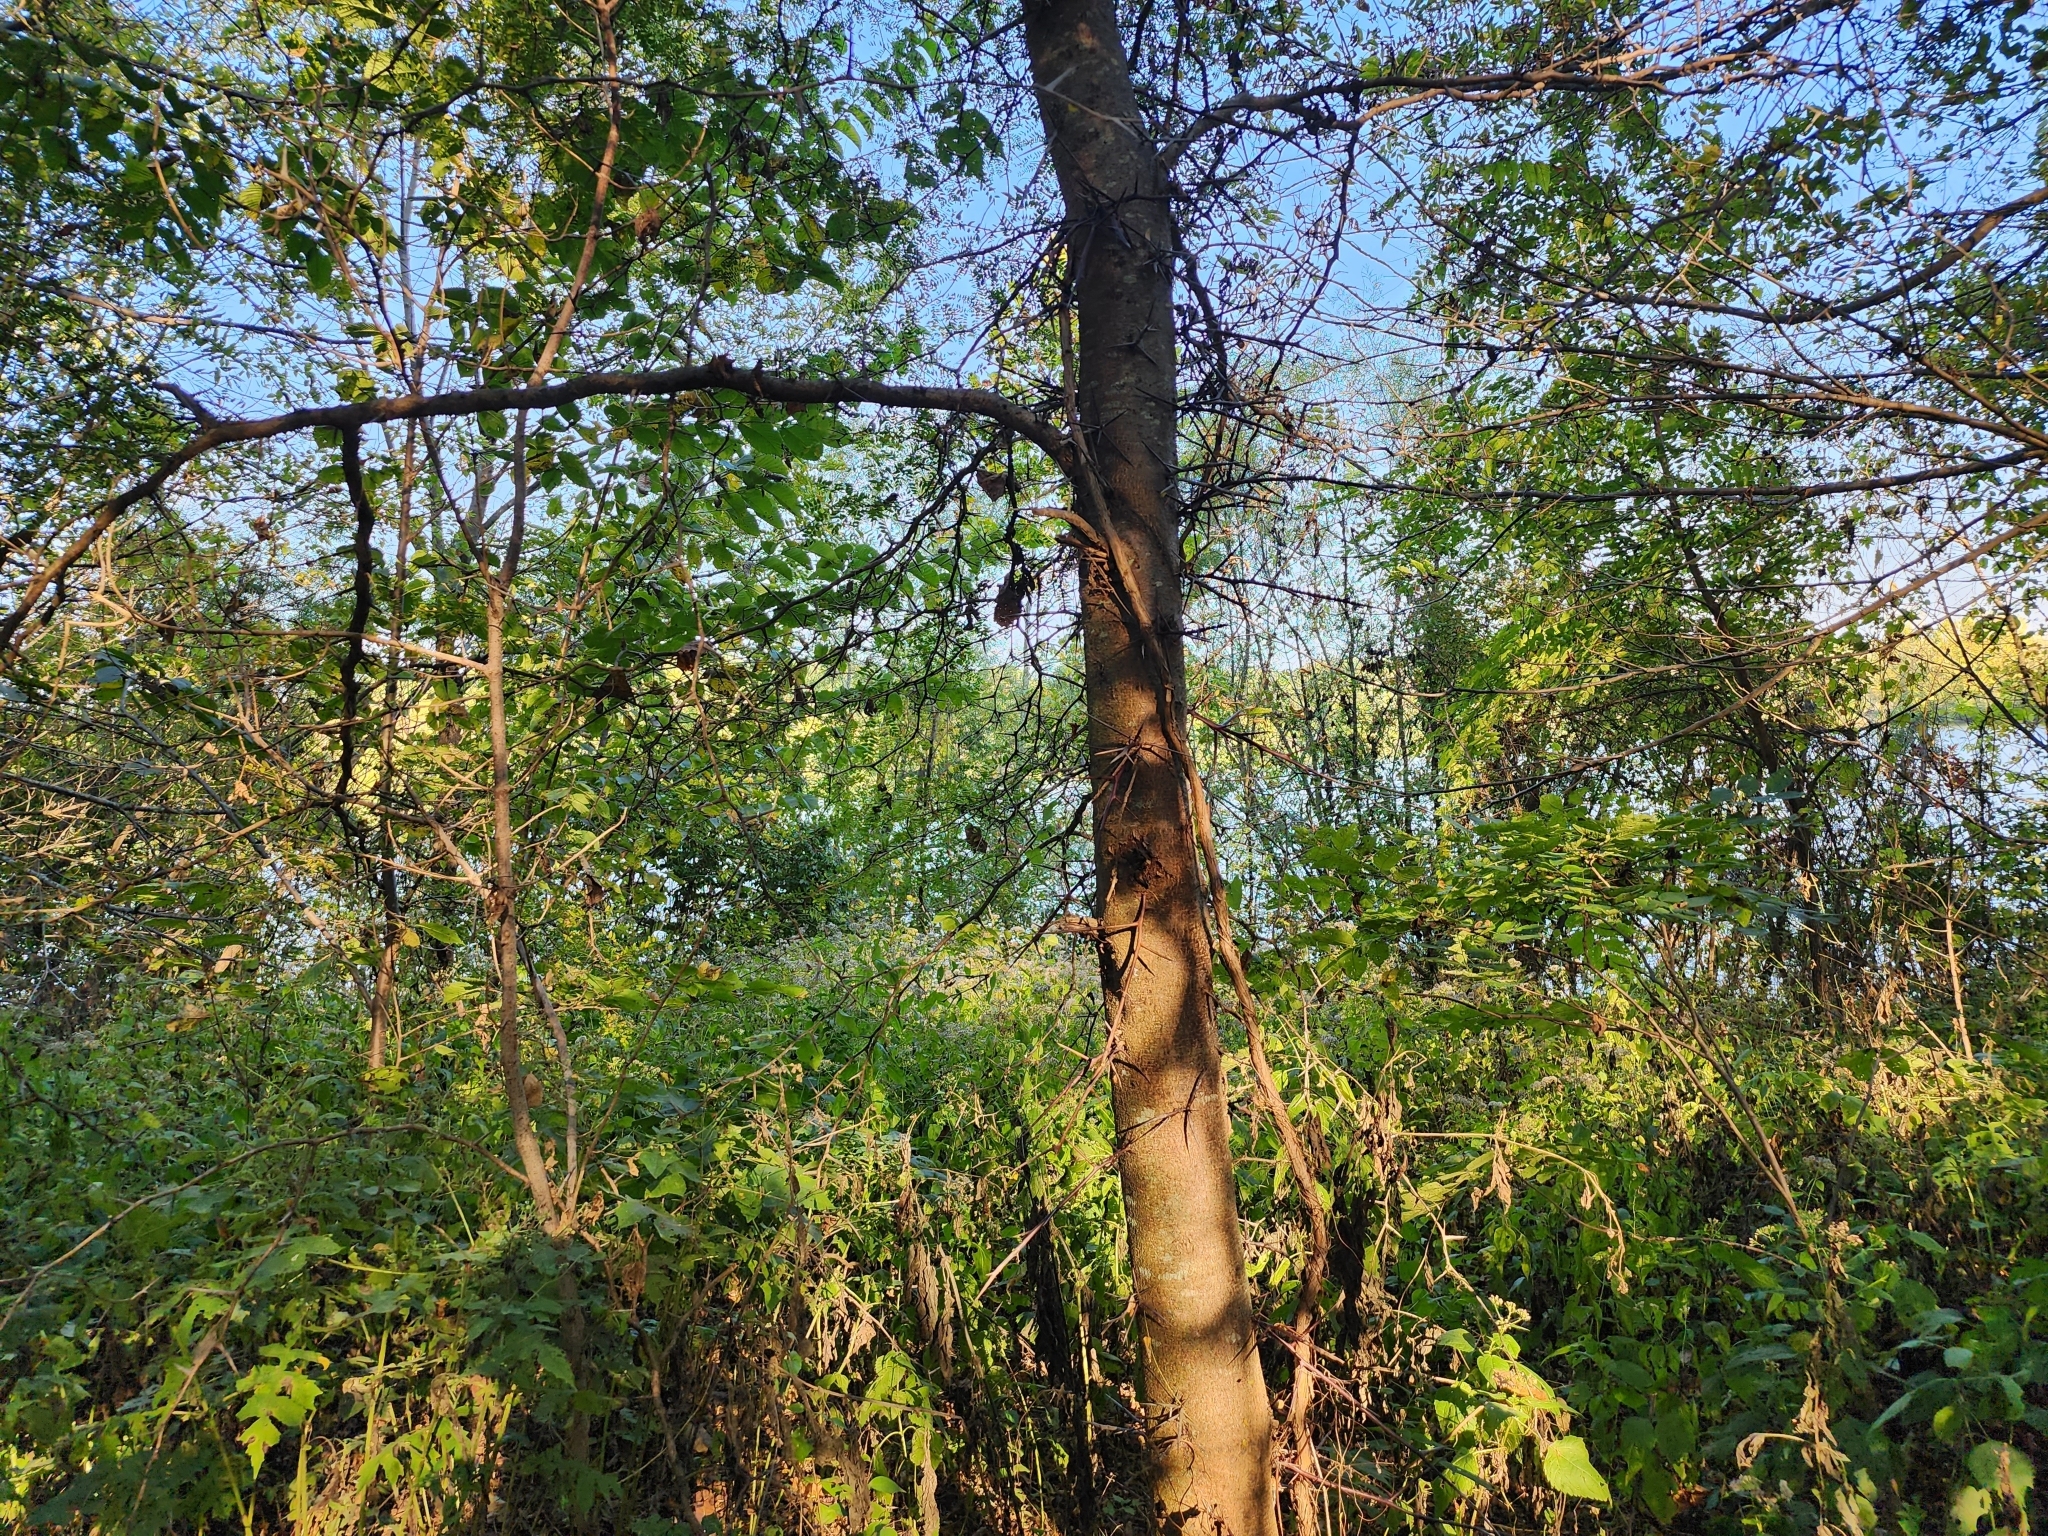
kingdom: Plantae
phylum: Tracheophyta
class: Magnoliopsida
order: Fabales
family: Fabaceae
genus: Gleditsia
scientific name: Gleditsia triacanthos
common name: Common honeylocust
